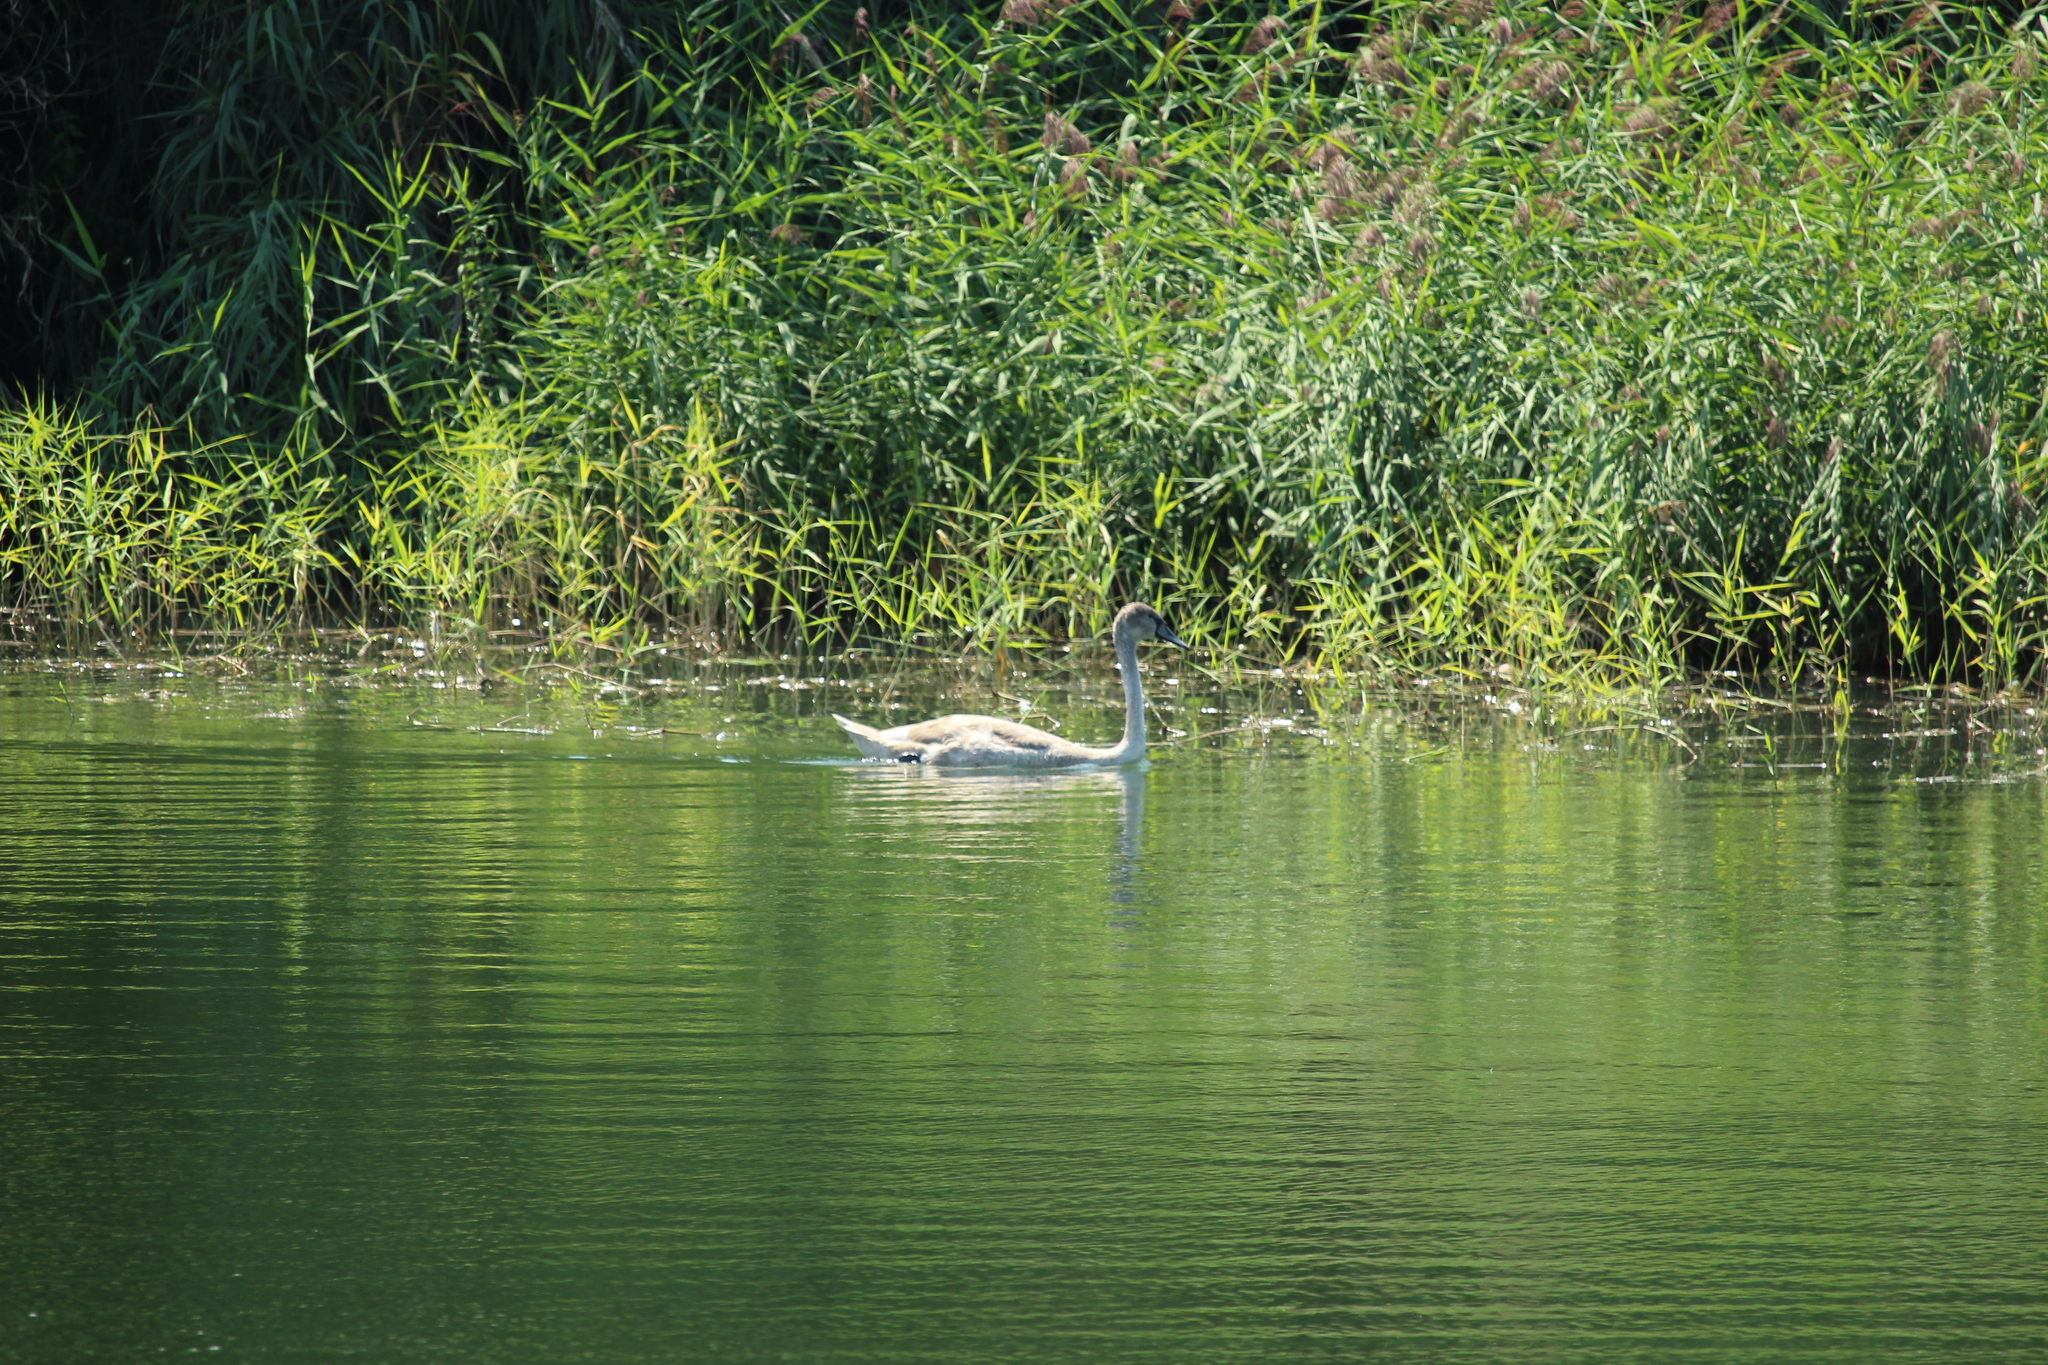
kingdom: Animalia
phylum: Chordata
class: Aves
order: Anseriformes
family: Anatidae
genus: Cygnus
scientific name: Cygnus olor
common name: Mute swan
